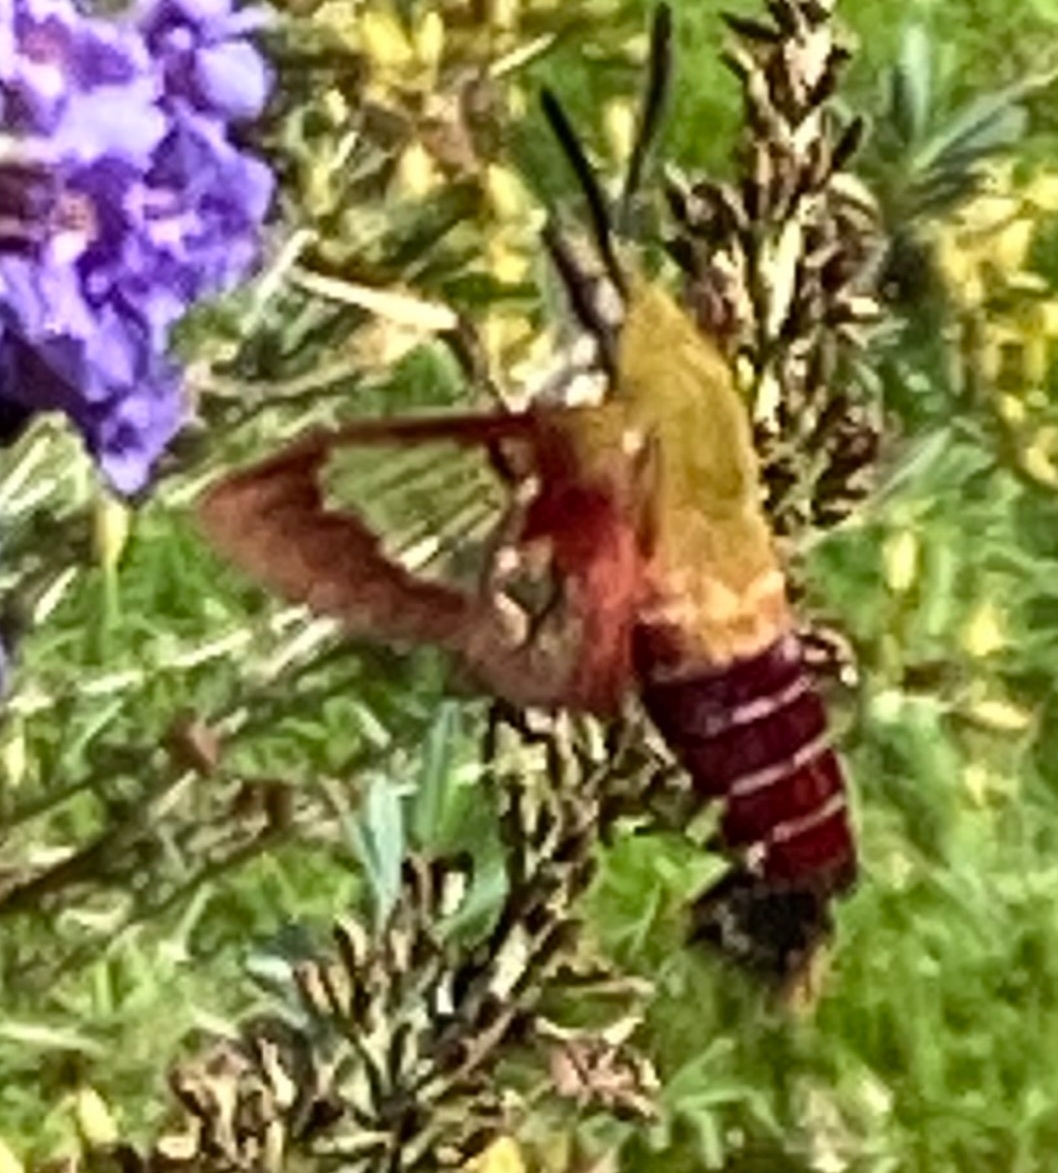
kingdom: Animalia
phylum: Arthropoda
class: Insecta
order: Lepidoptera
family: Sphingidae
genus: Hemaris
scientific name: Hemaris thysbe
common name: Common clear-wing
